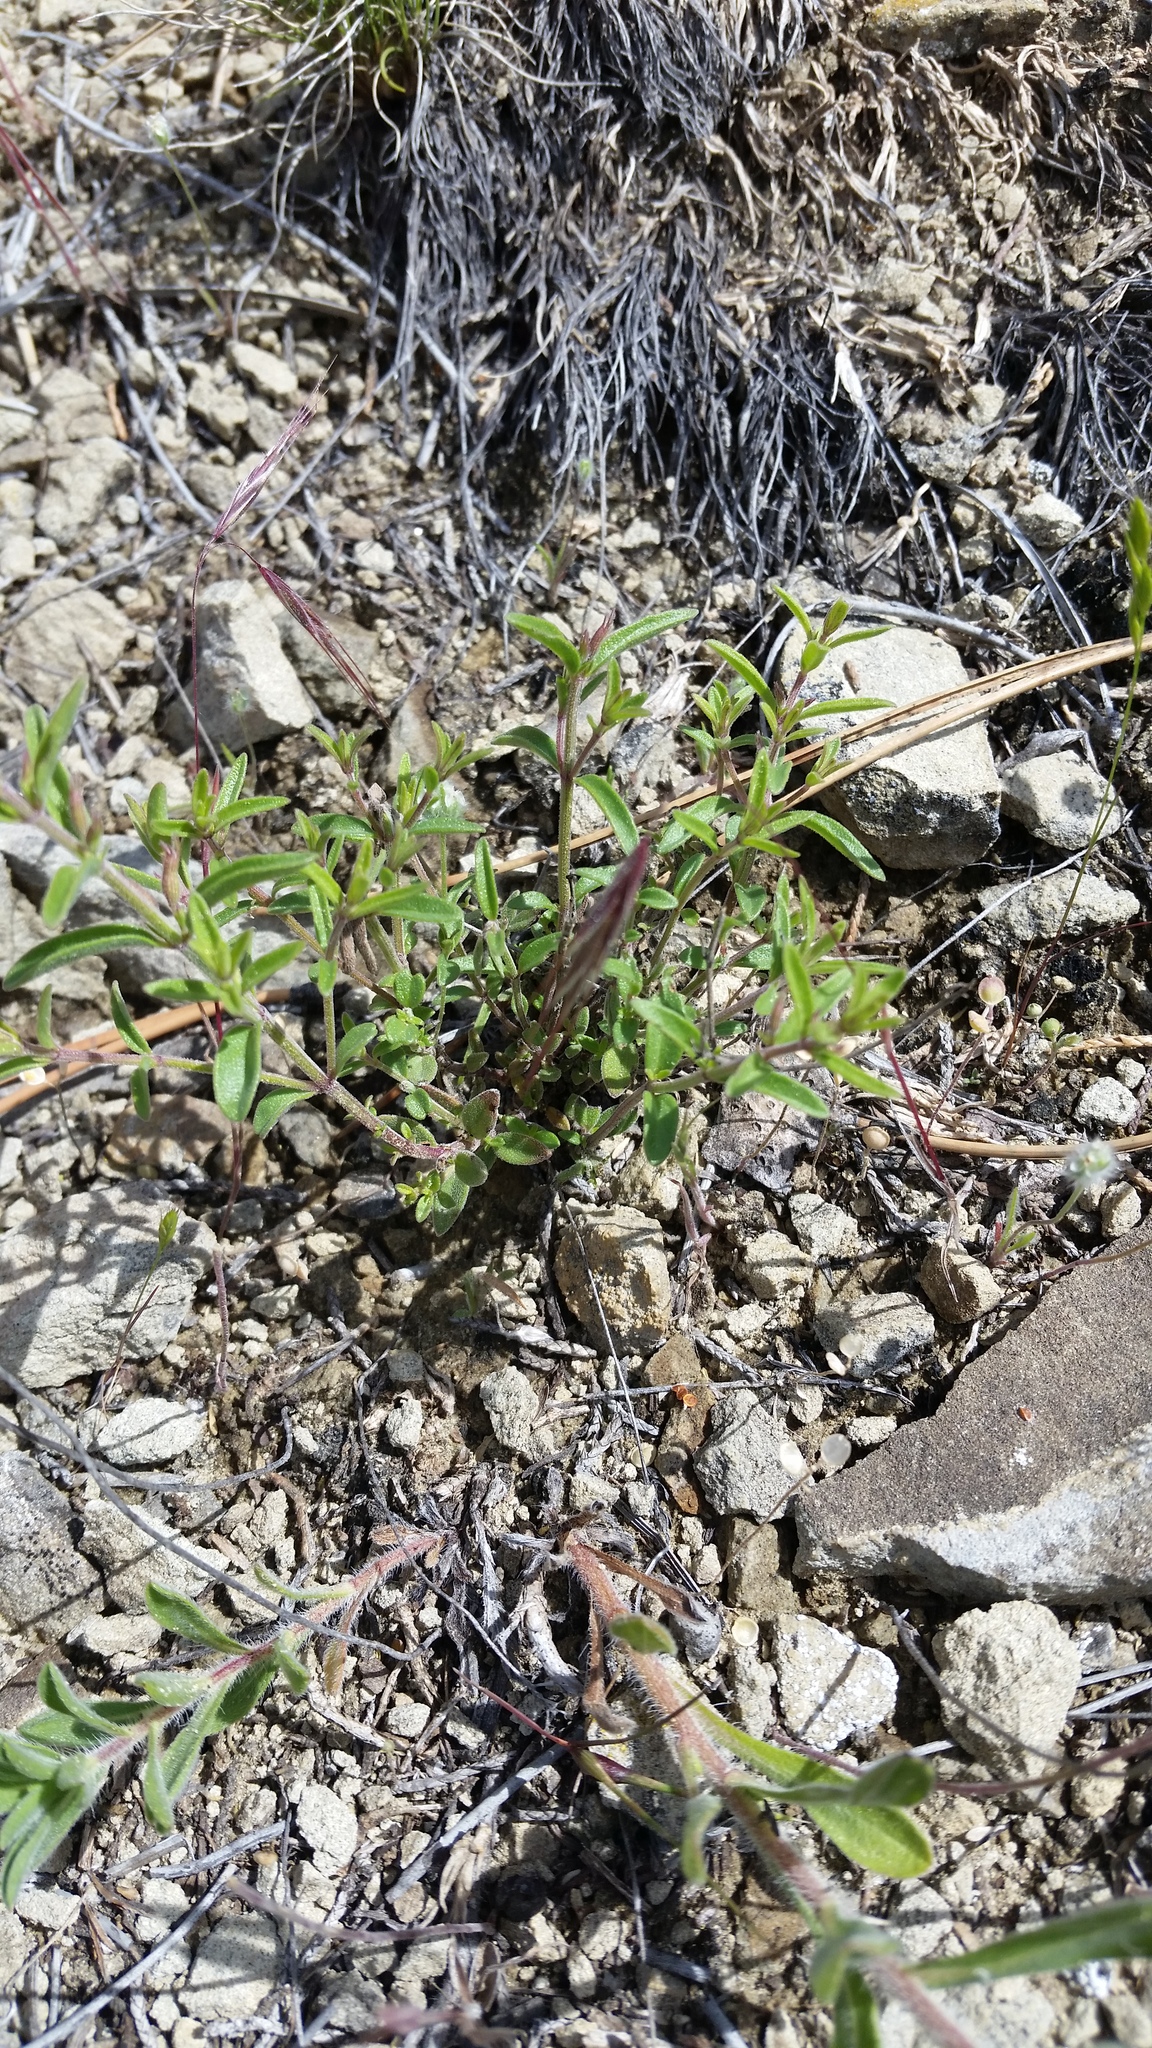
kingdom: Plantae
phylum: Tracheophyta
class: Magnoliopsida
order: Lamiales
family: Lamiaceae
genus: Hedeoma
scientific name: Hedeoma drummondii
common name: New mexico pennyroyal
